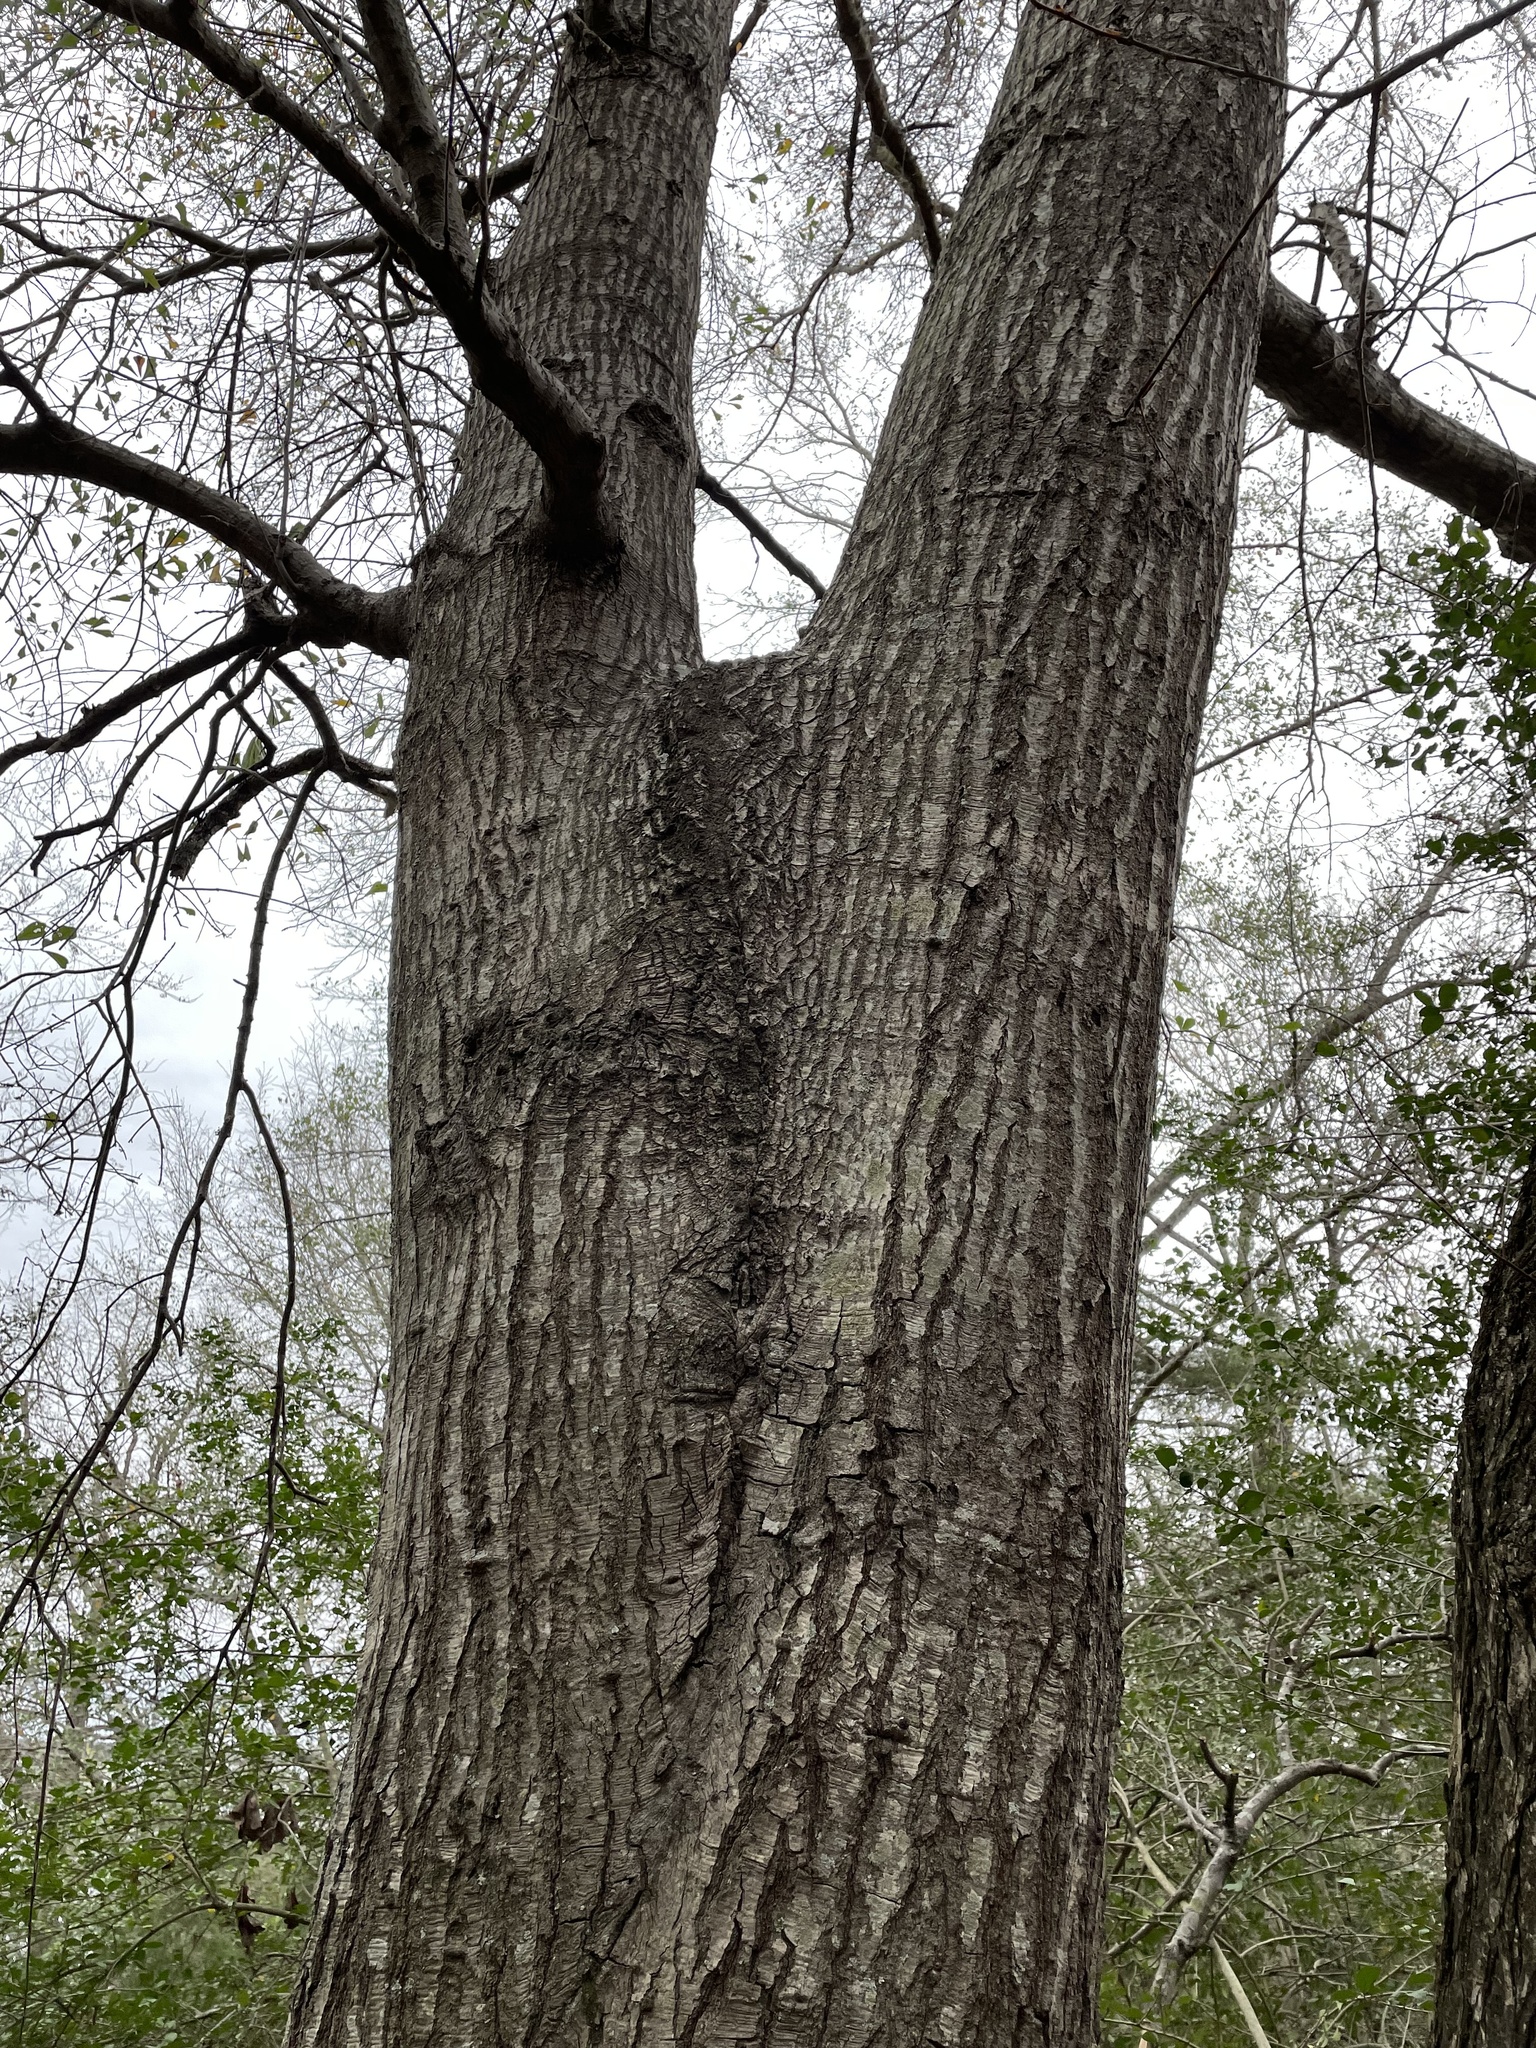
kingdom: Plantae
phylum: Tracheophyta
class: Magnoliopsida
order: Fagales
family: Fagaceae
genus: Quercus
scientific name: Quercus nigra
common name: Water oak
